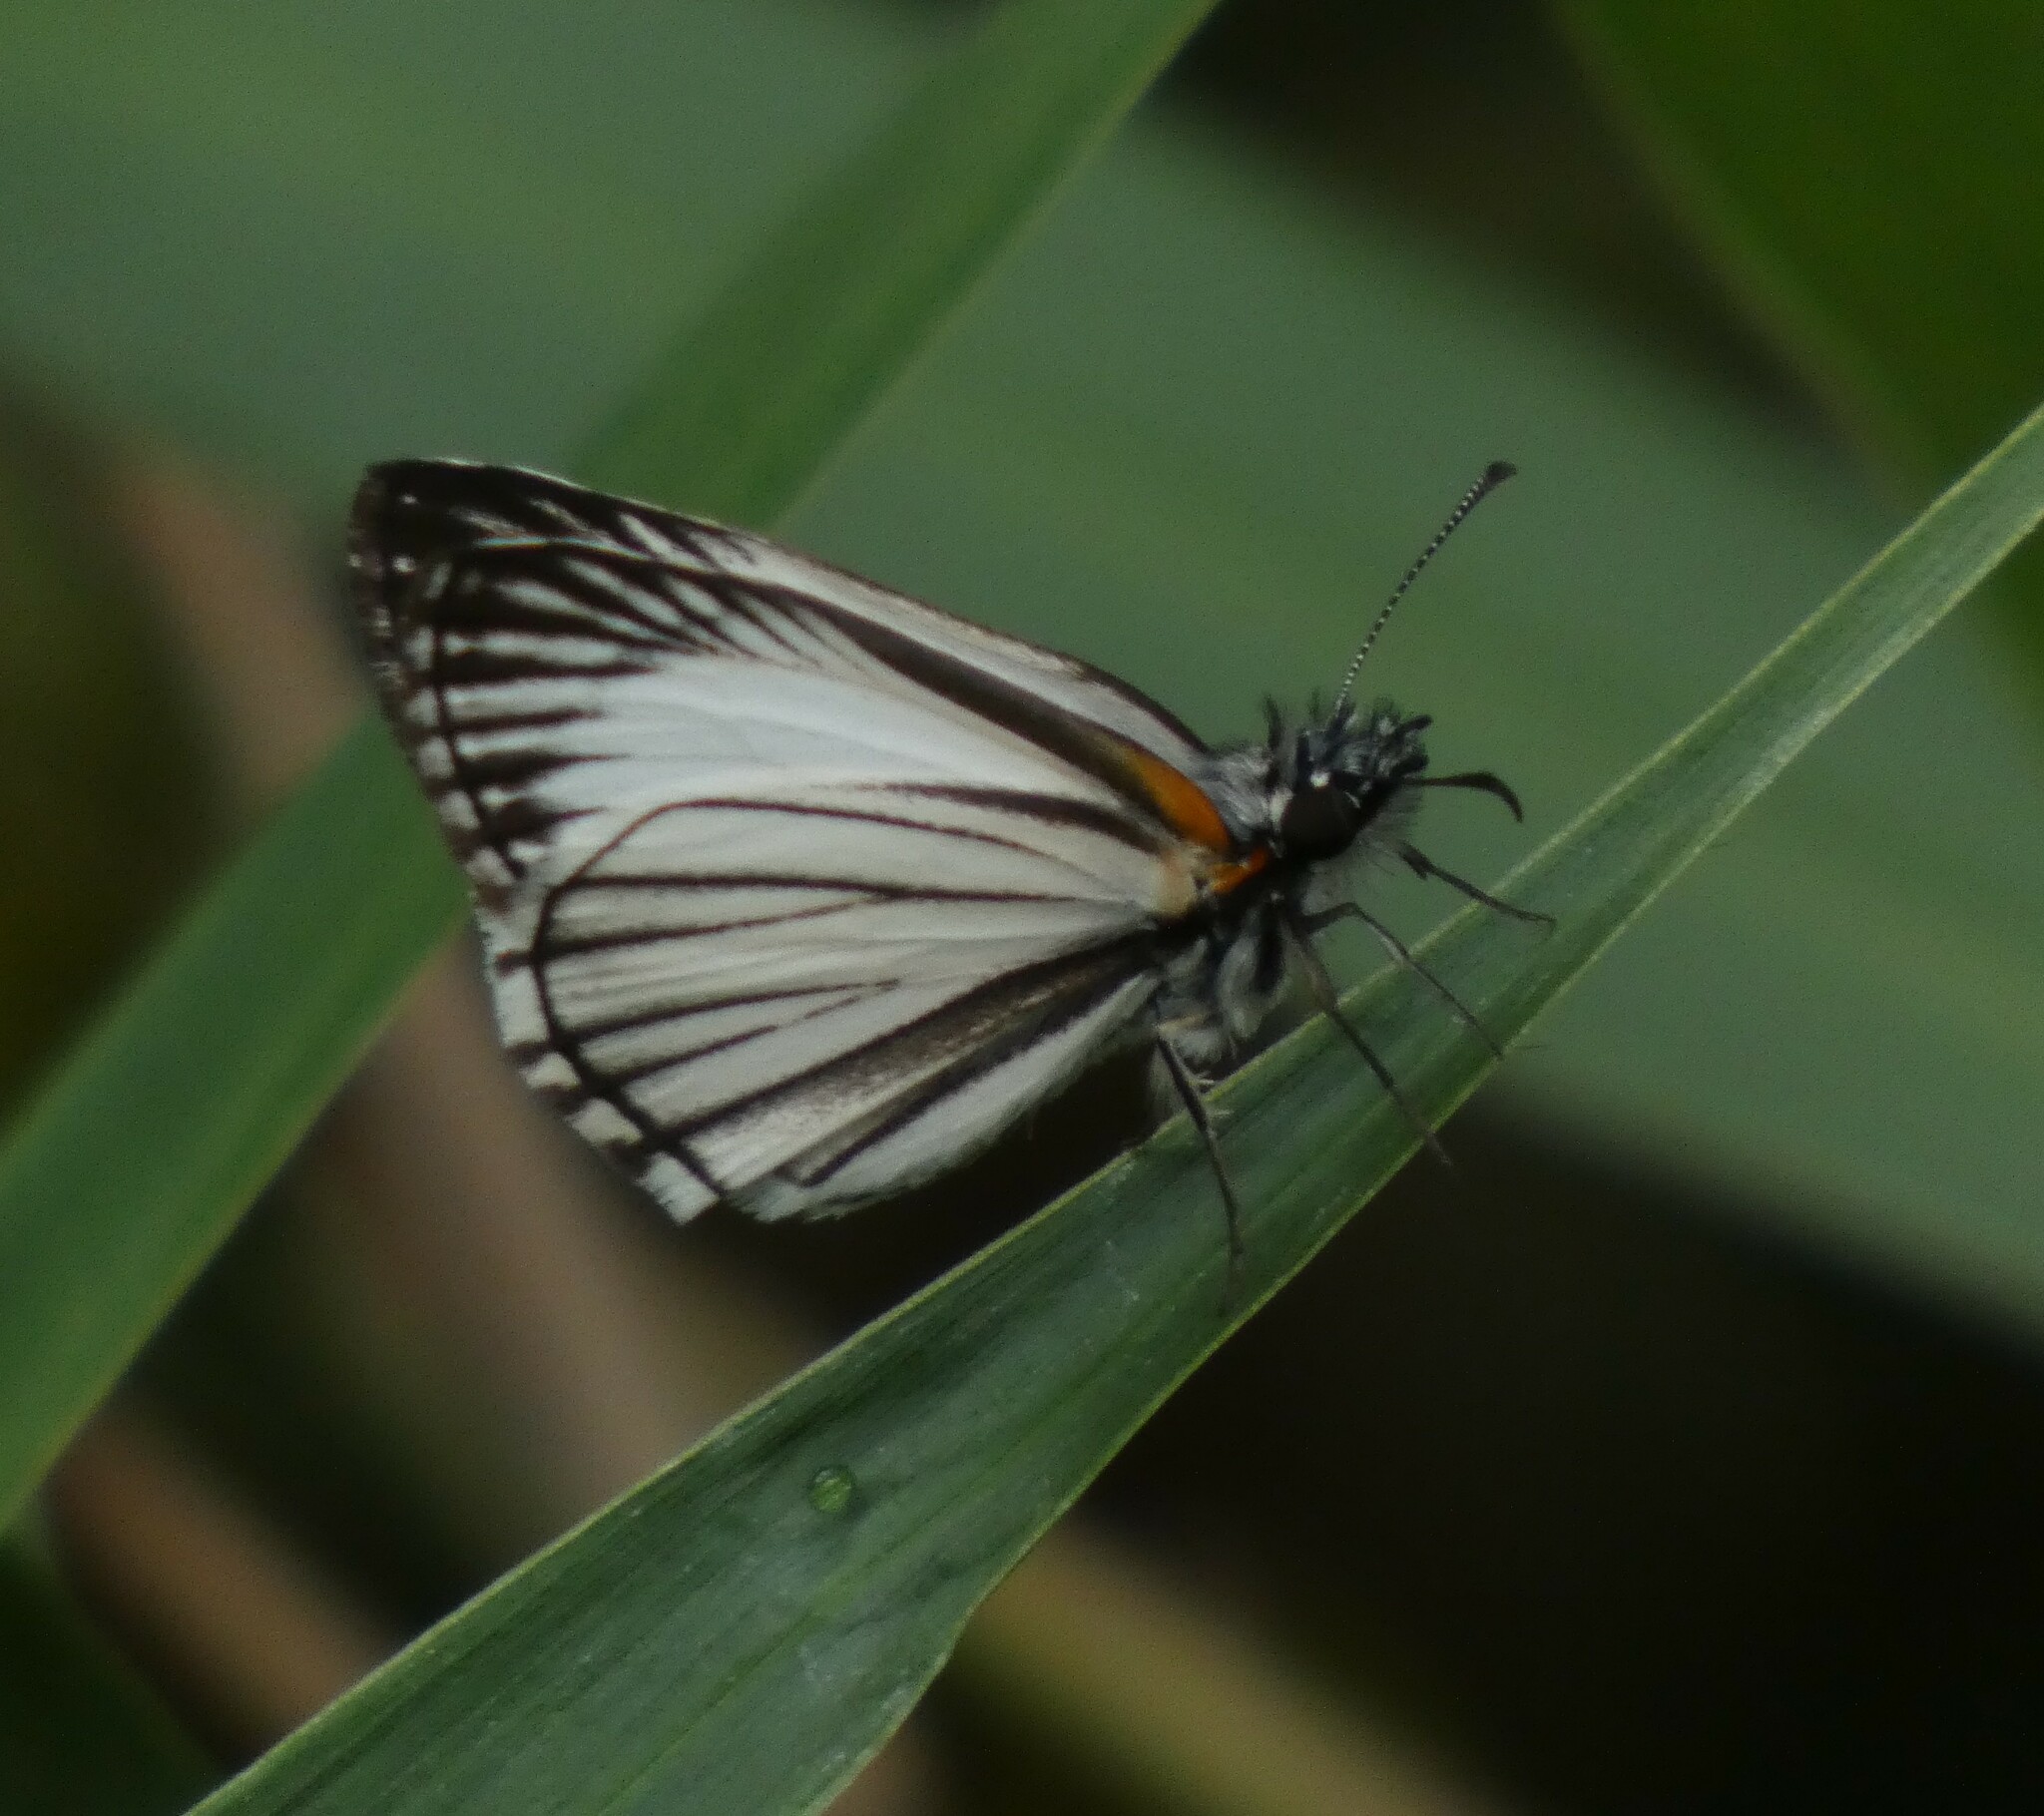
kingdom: Animalia
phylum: Arthropoda
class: Insecta
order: Lepidoptera
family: Hesperiidae
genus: Heliopetes
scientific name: Heliopetes arsalte
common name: Veined white-skipper
